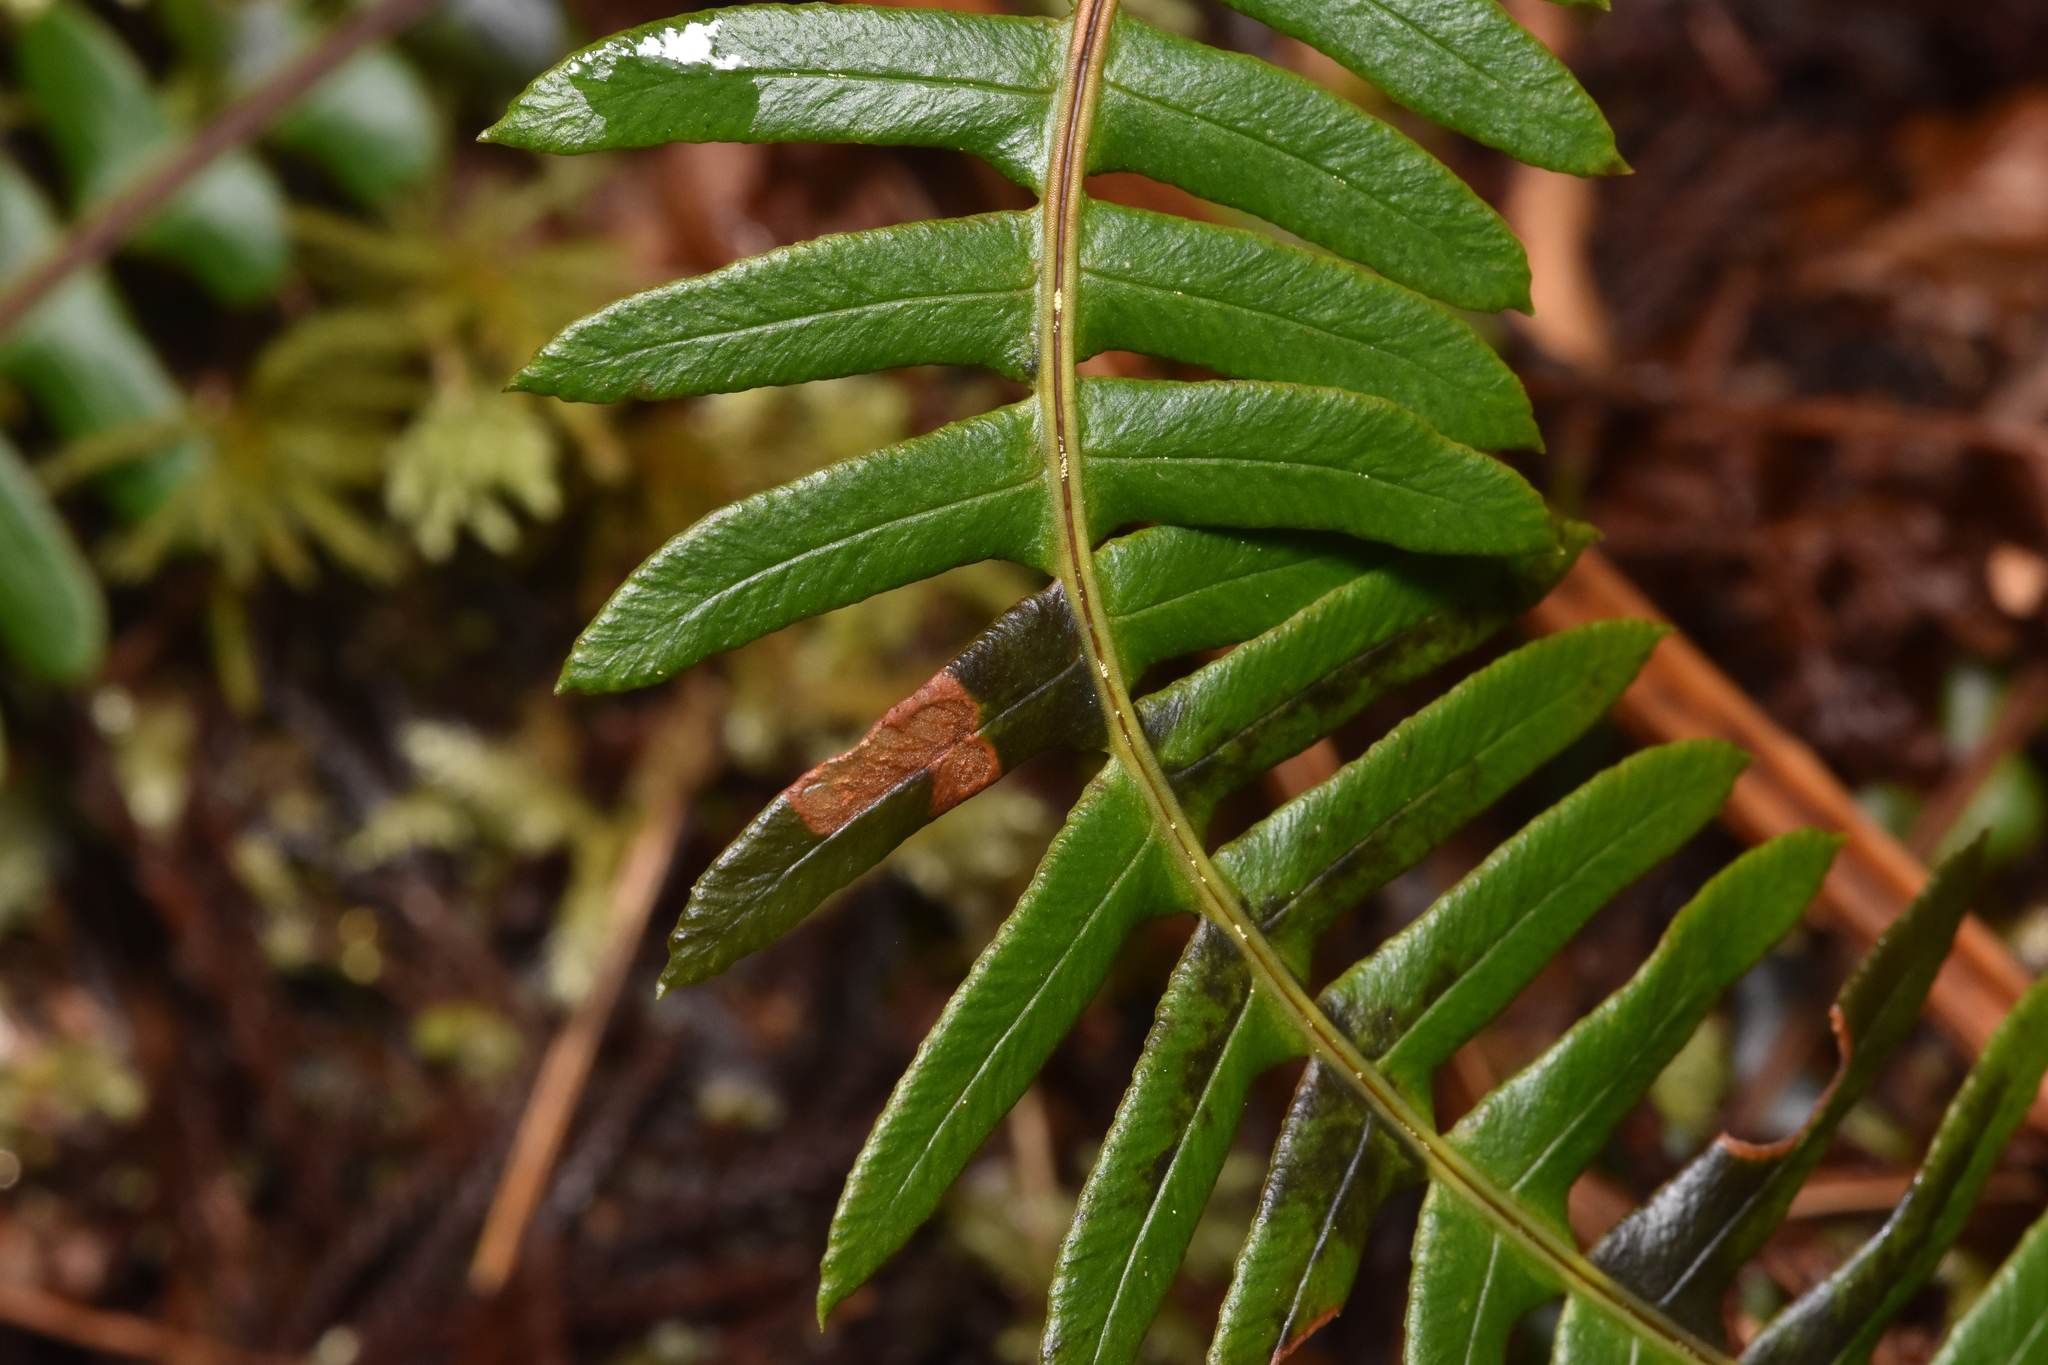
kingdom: Plantae
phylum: Tracheophyta
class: Polypodiopsida
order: Polypodiales
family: Blechnaceae
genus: Struthiopteris
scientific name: Struthiopteris spicant
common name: Deer fern
